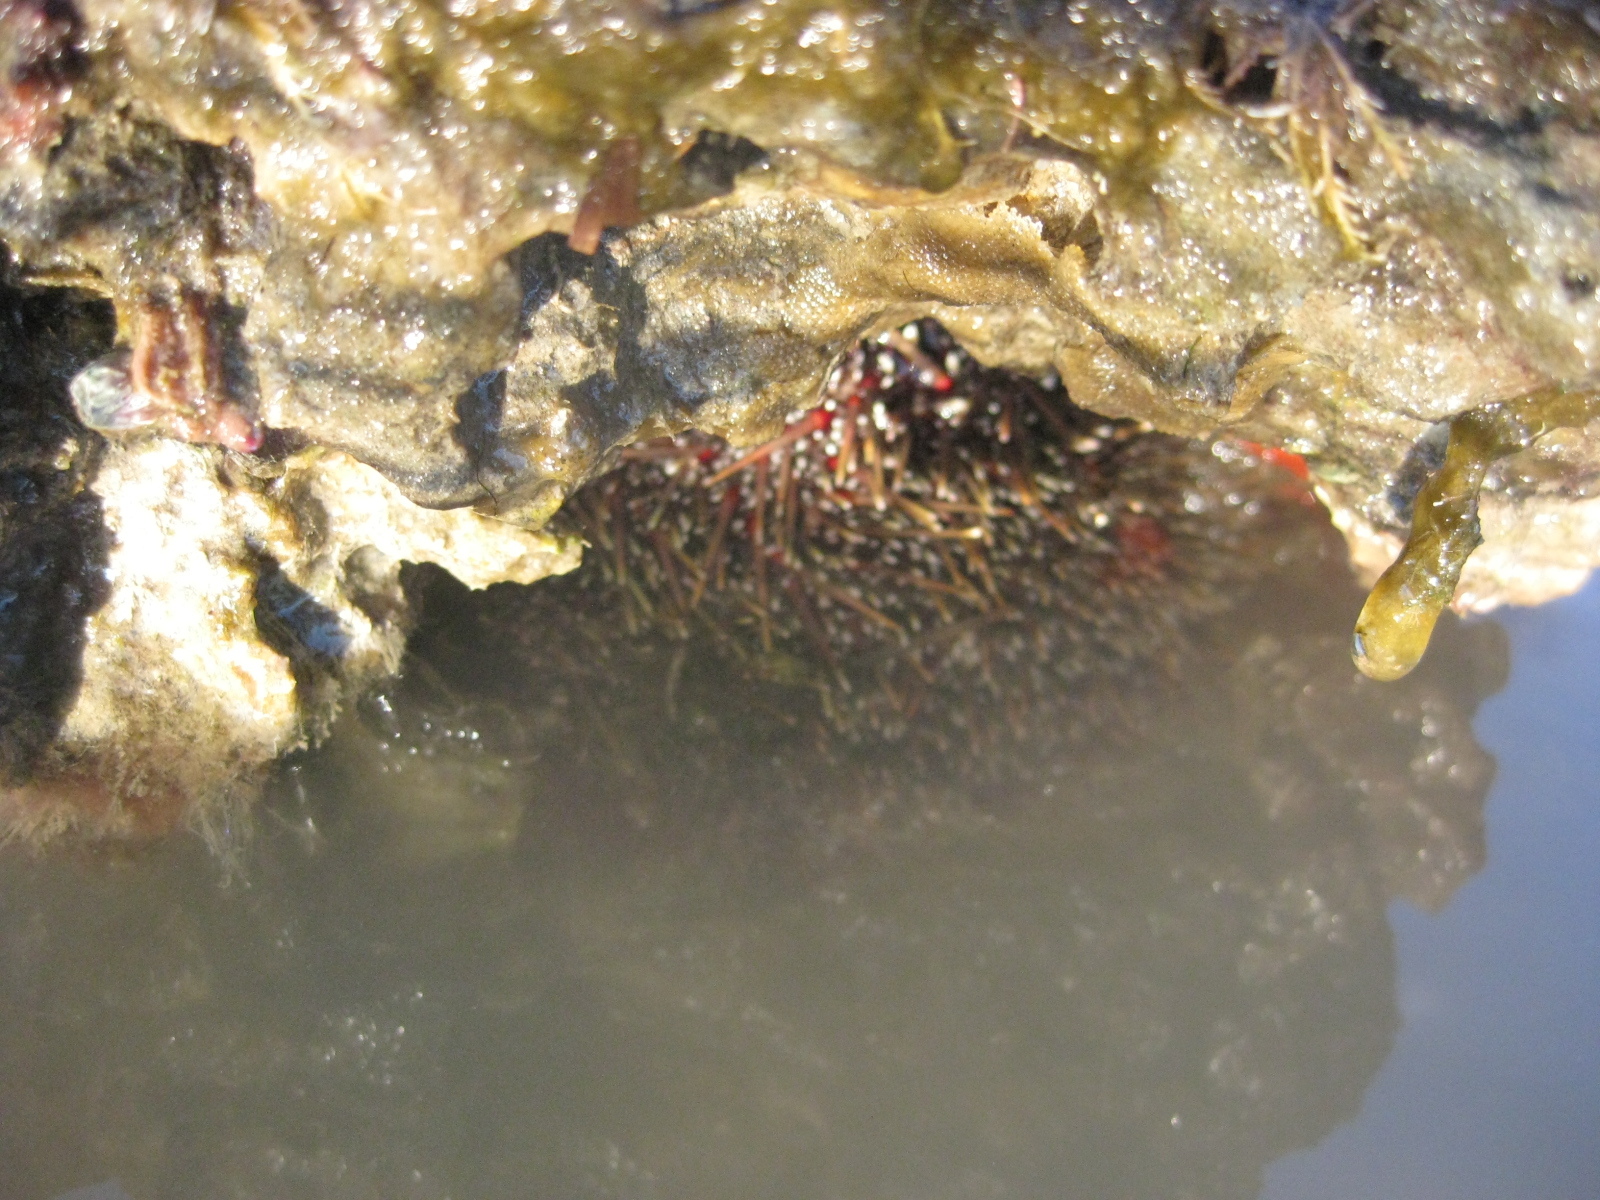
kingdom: Animalia
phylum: Echinodermata
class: Echinoidea
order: Camarodonta
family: Echinometridae
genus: Evechinus
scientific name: Evechinus chloroticus
